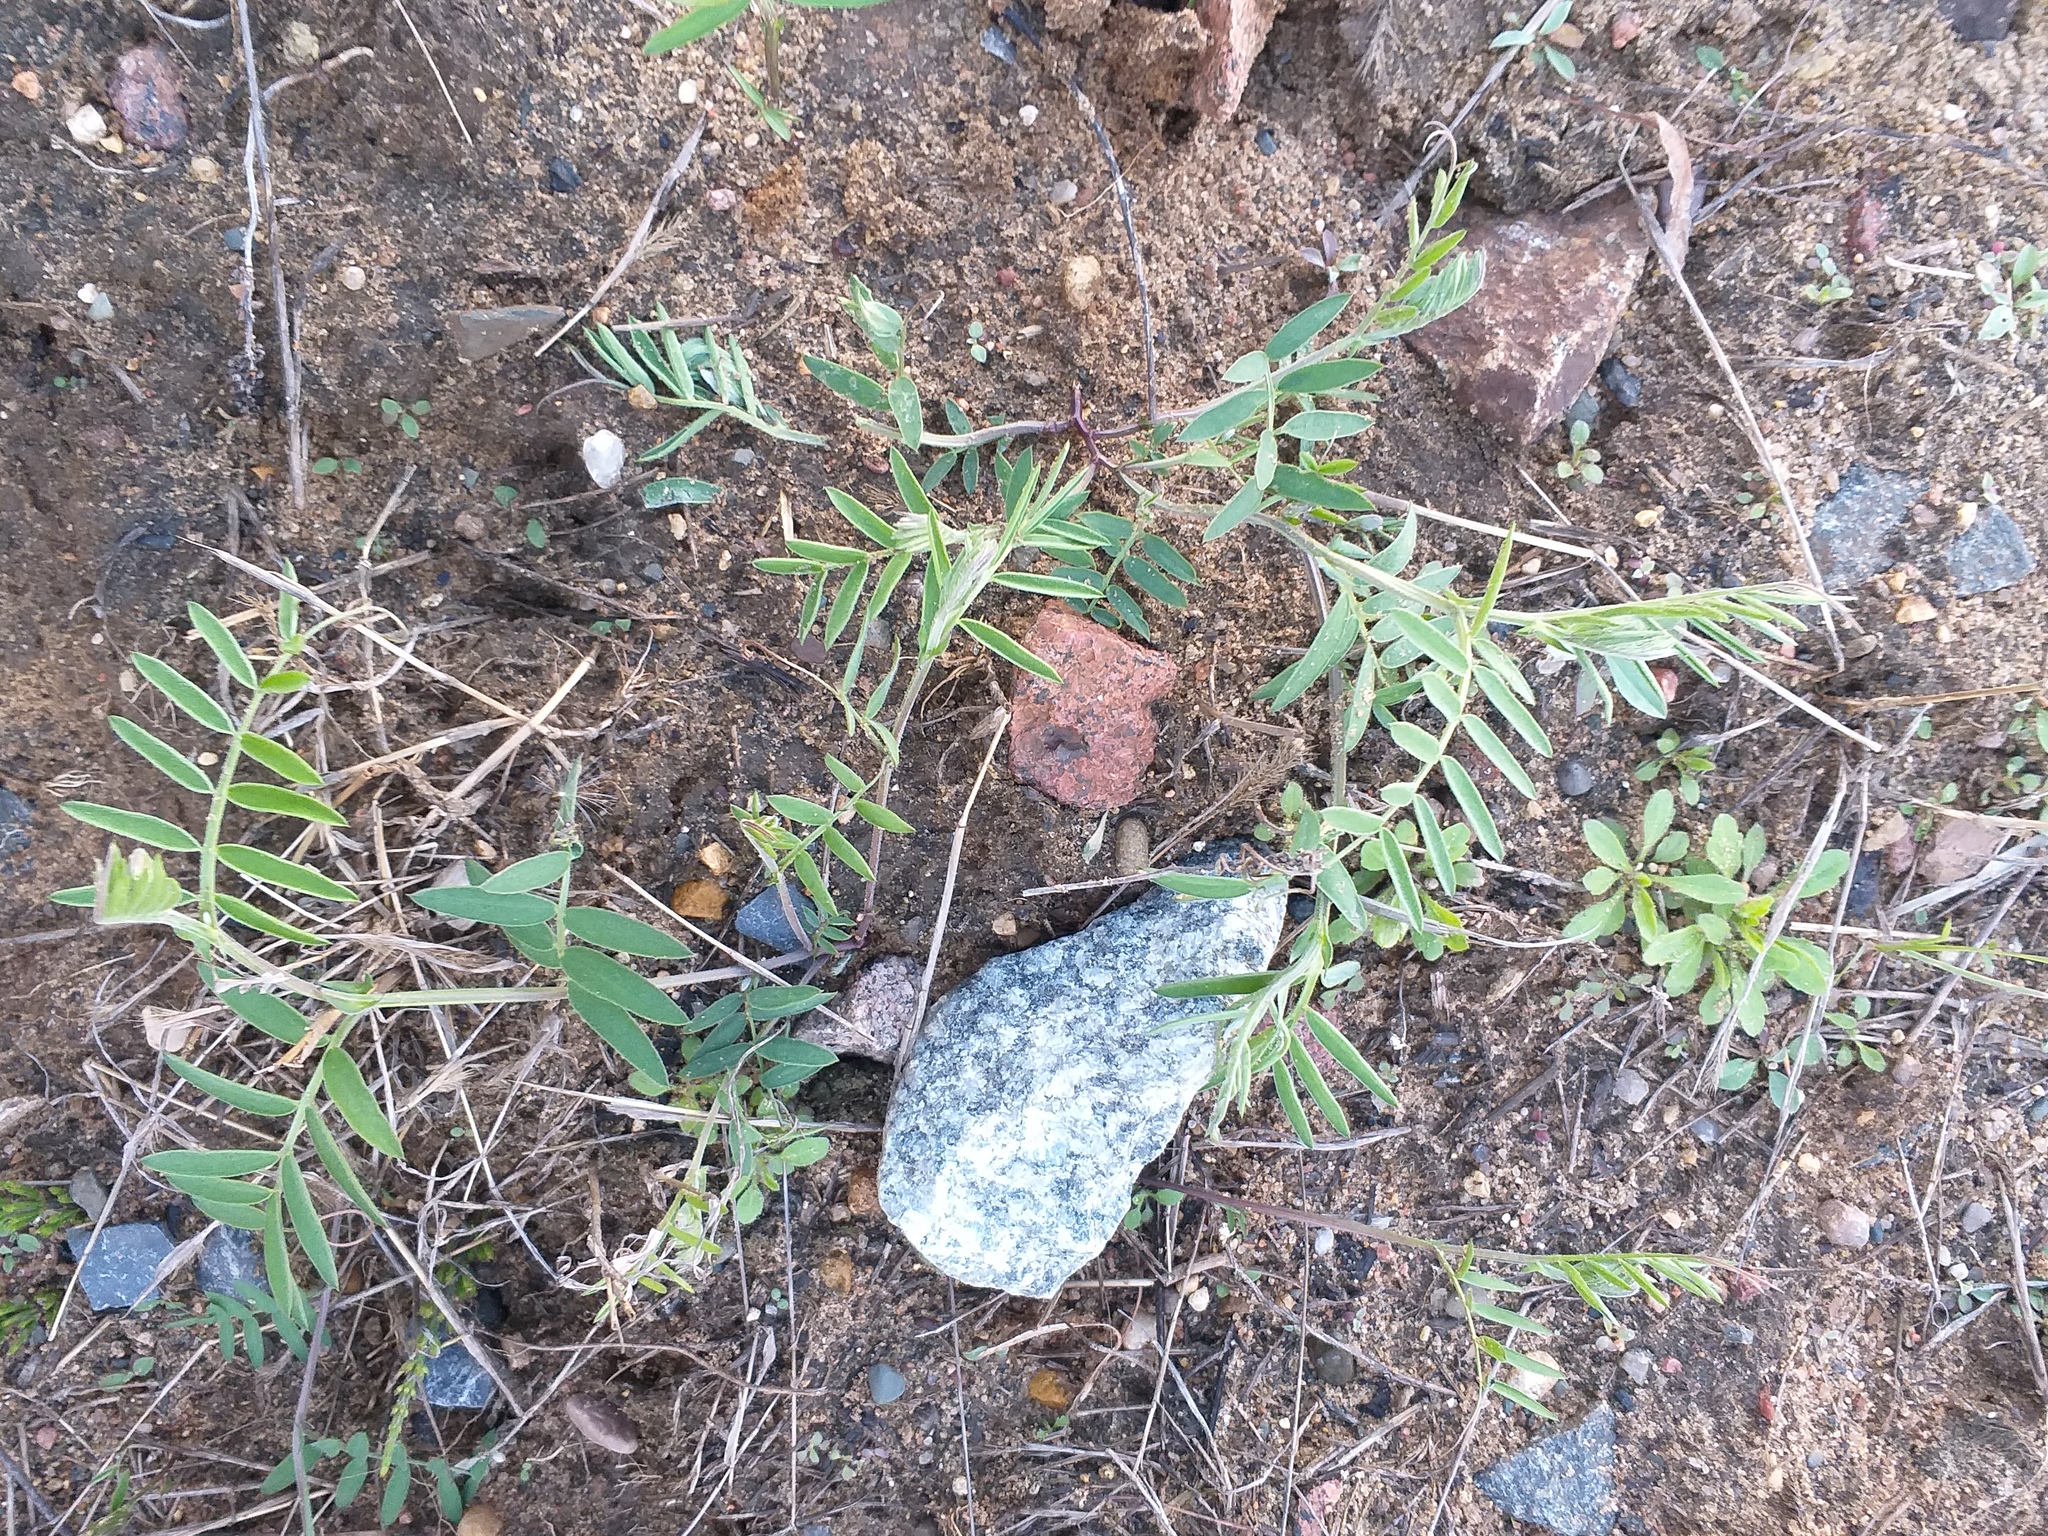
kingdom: Plantae
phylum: Tracheophyta
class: Magnoliopsida
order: Fabales
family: Fabaceae
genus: Vicia
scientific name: Vicia cracca
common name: Bird vetch
